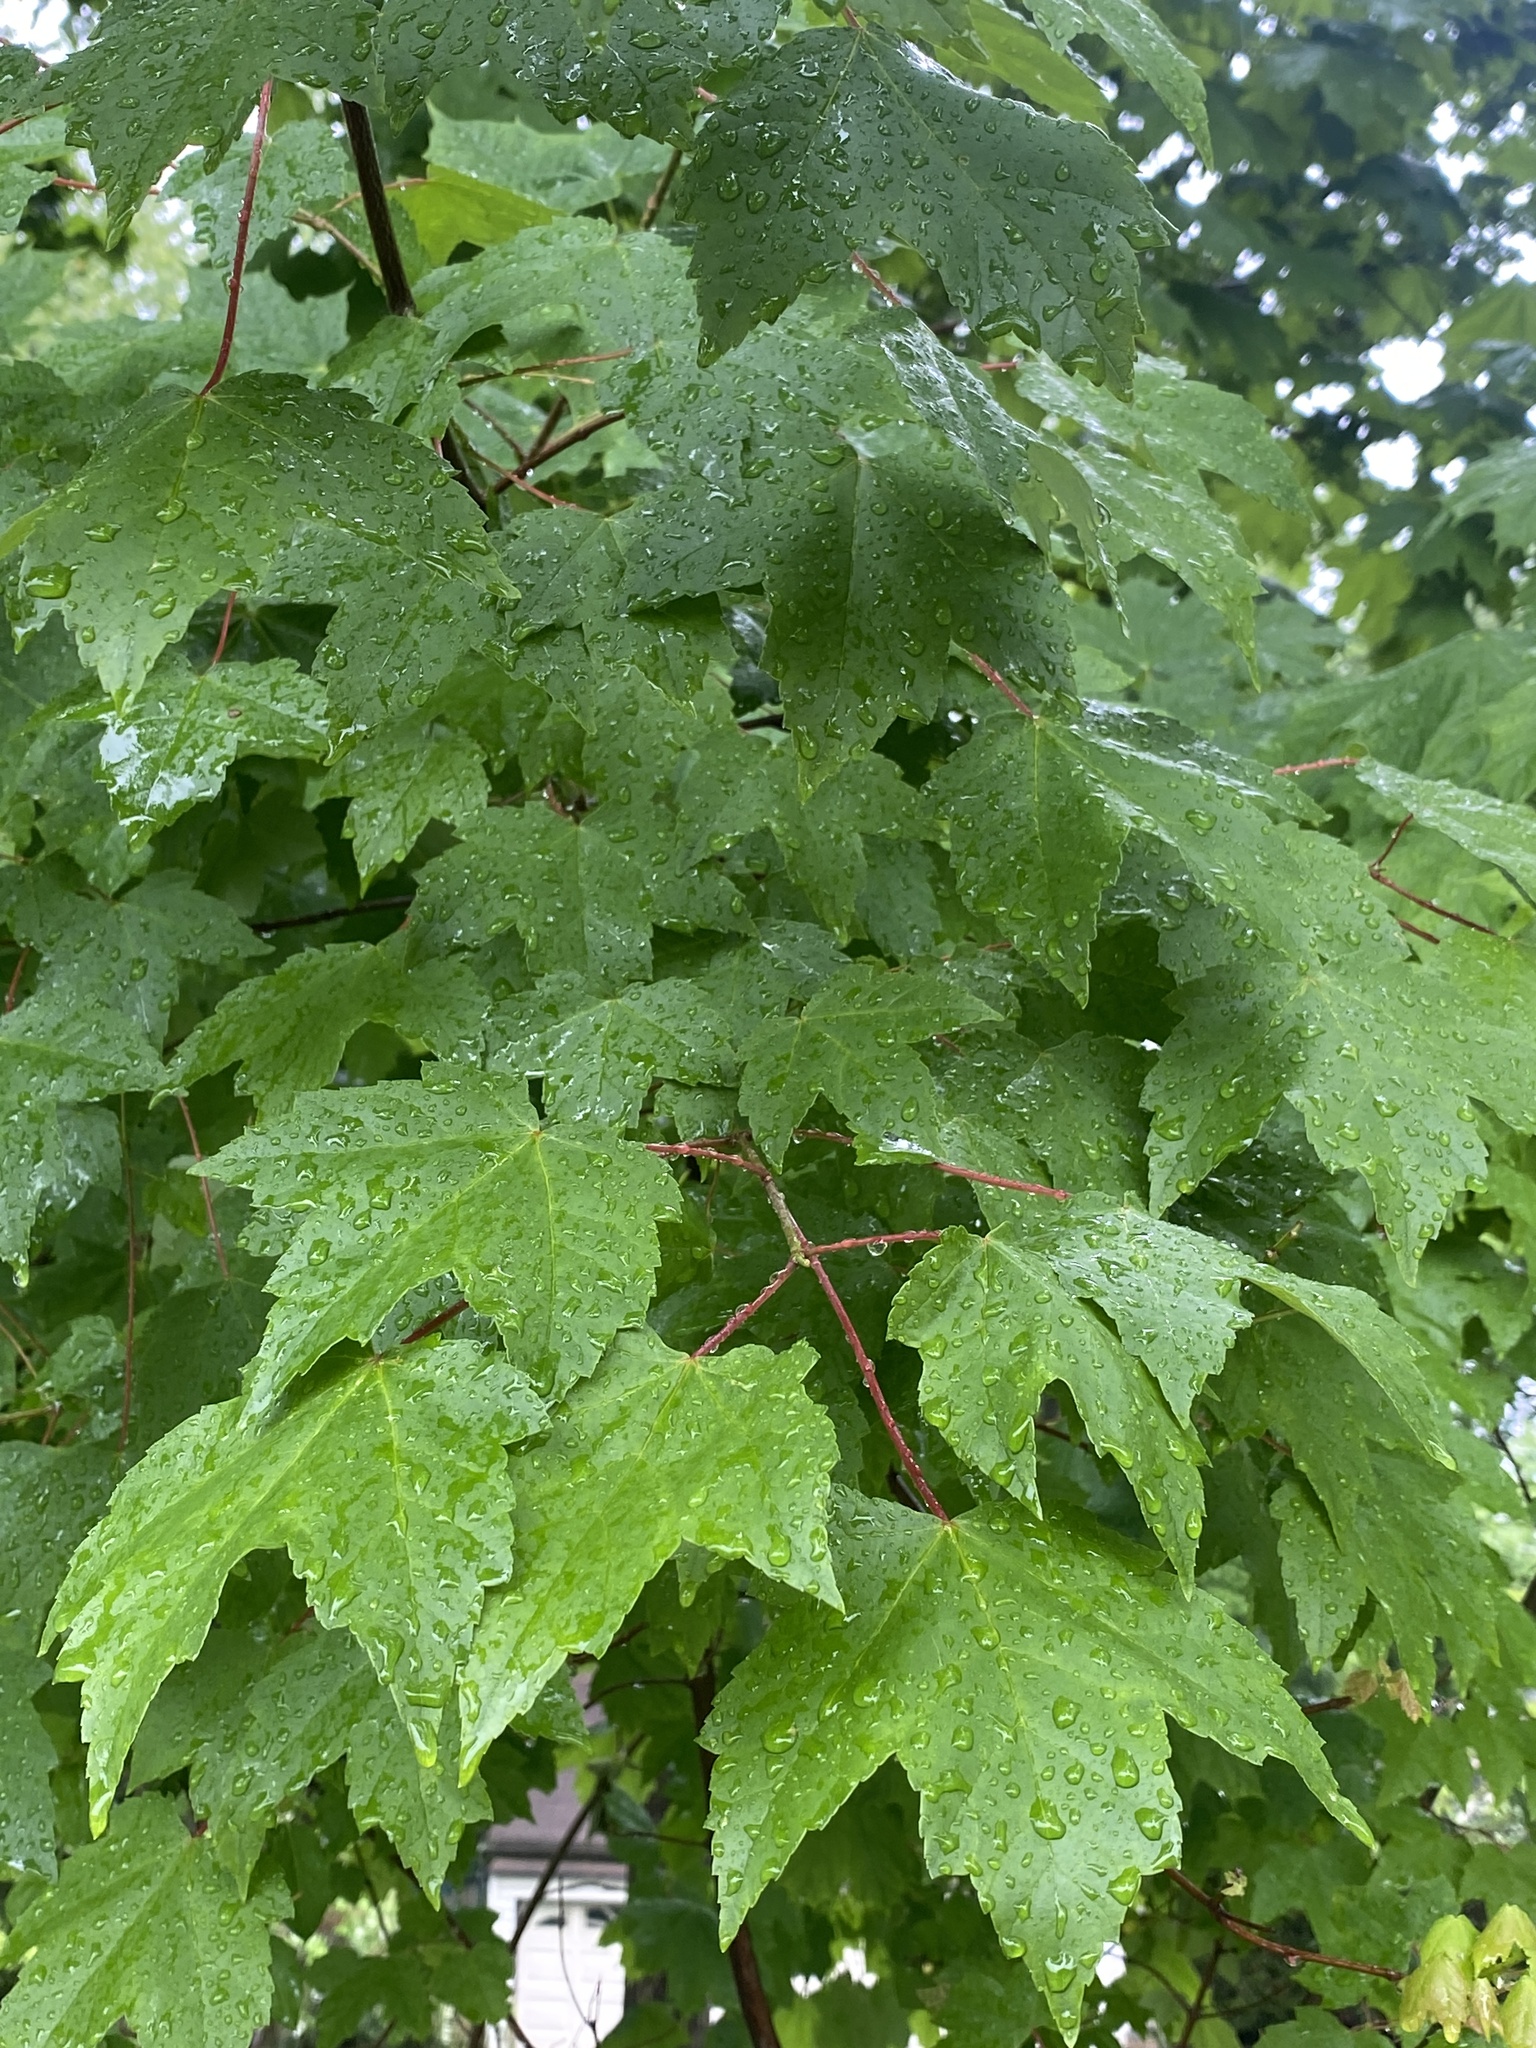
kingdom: Plantae
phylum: Tracheophyta
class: Magnoliopsida
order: Sapindales
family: Sapindaceae
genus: Acer
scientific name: Acer rubrum
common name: Red maple
